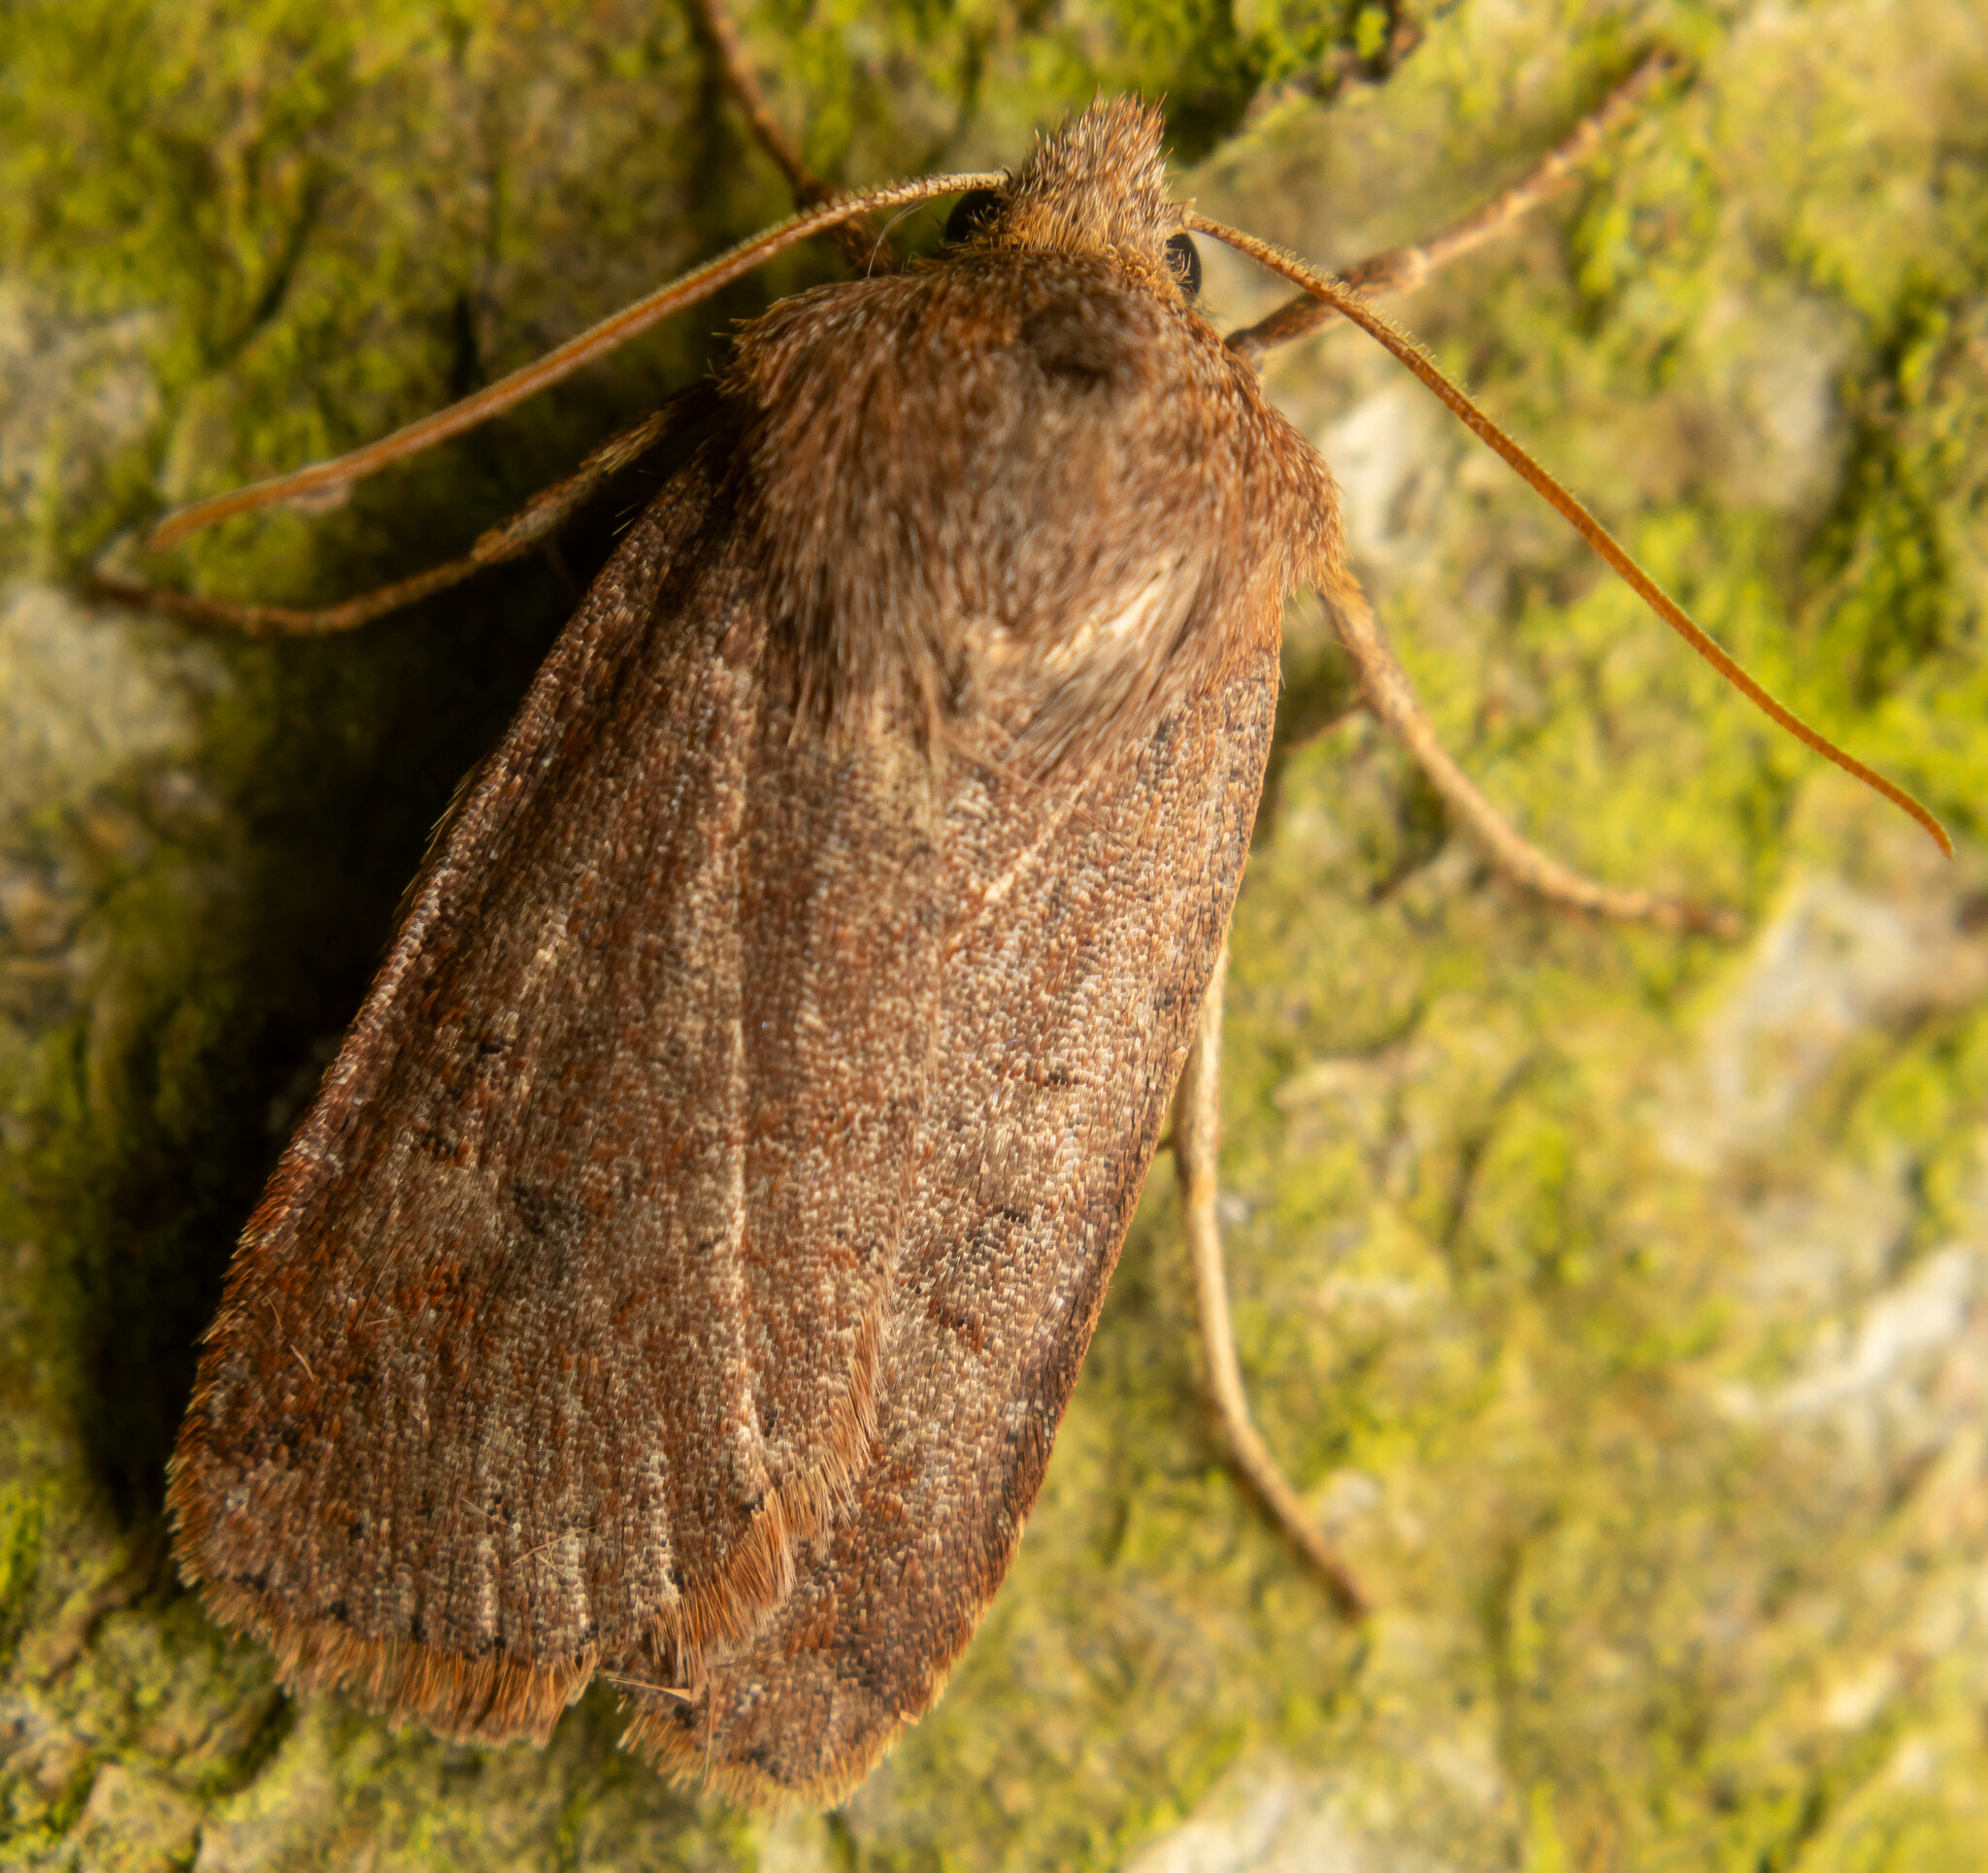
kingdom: Animalia
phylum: Arthropoda
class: Insecta
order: Lepidoptera
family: Noctuidae
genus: Conistra
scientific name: Conistra vaccinii
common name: Chestnut
